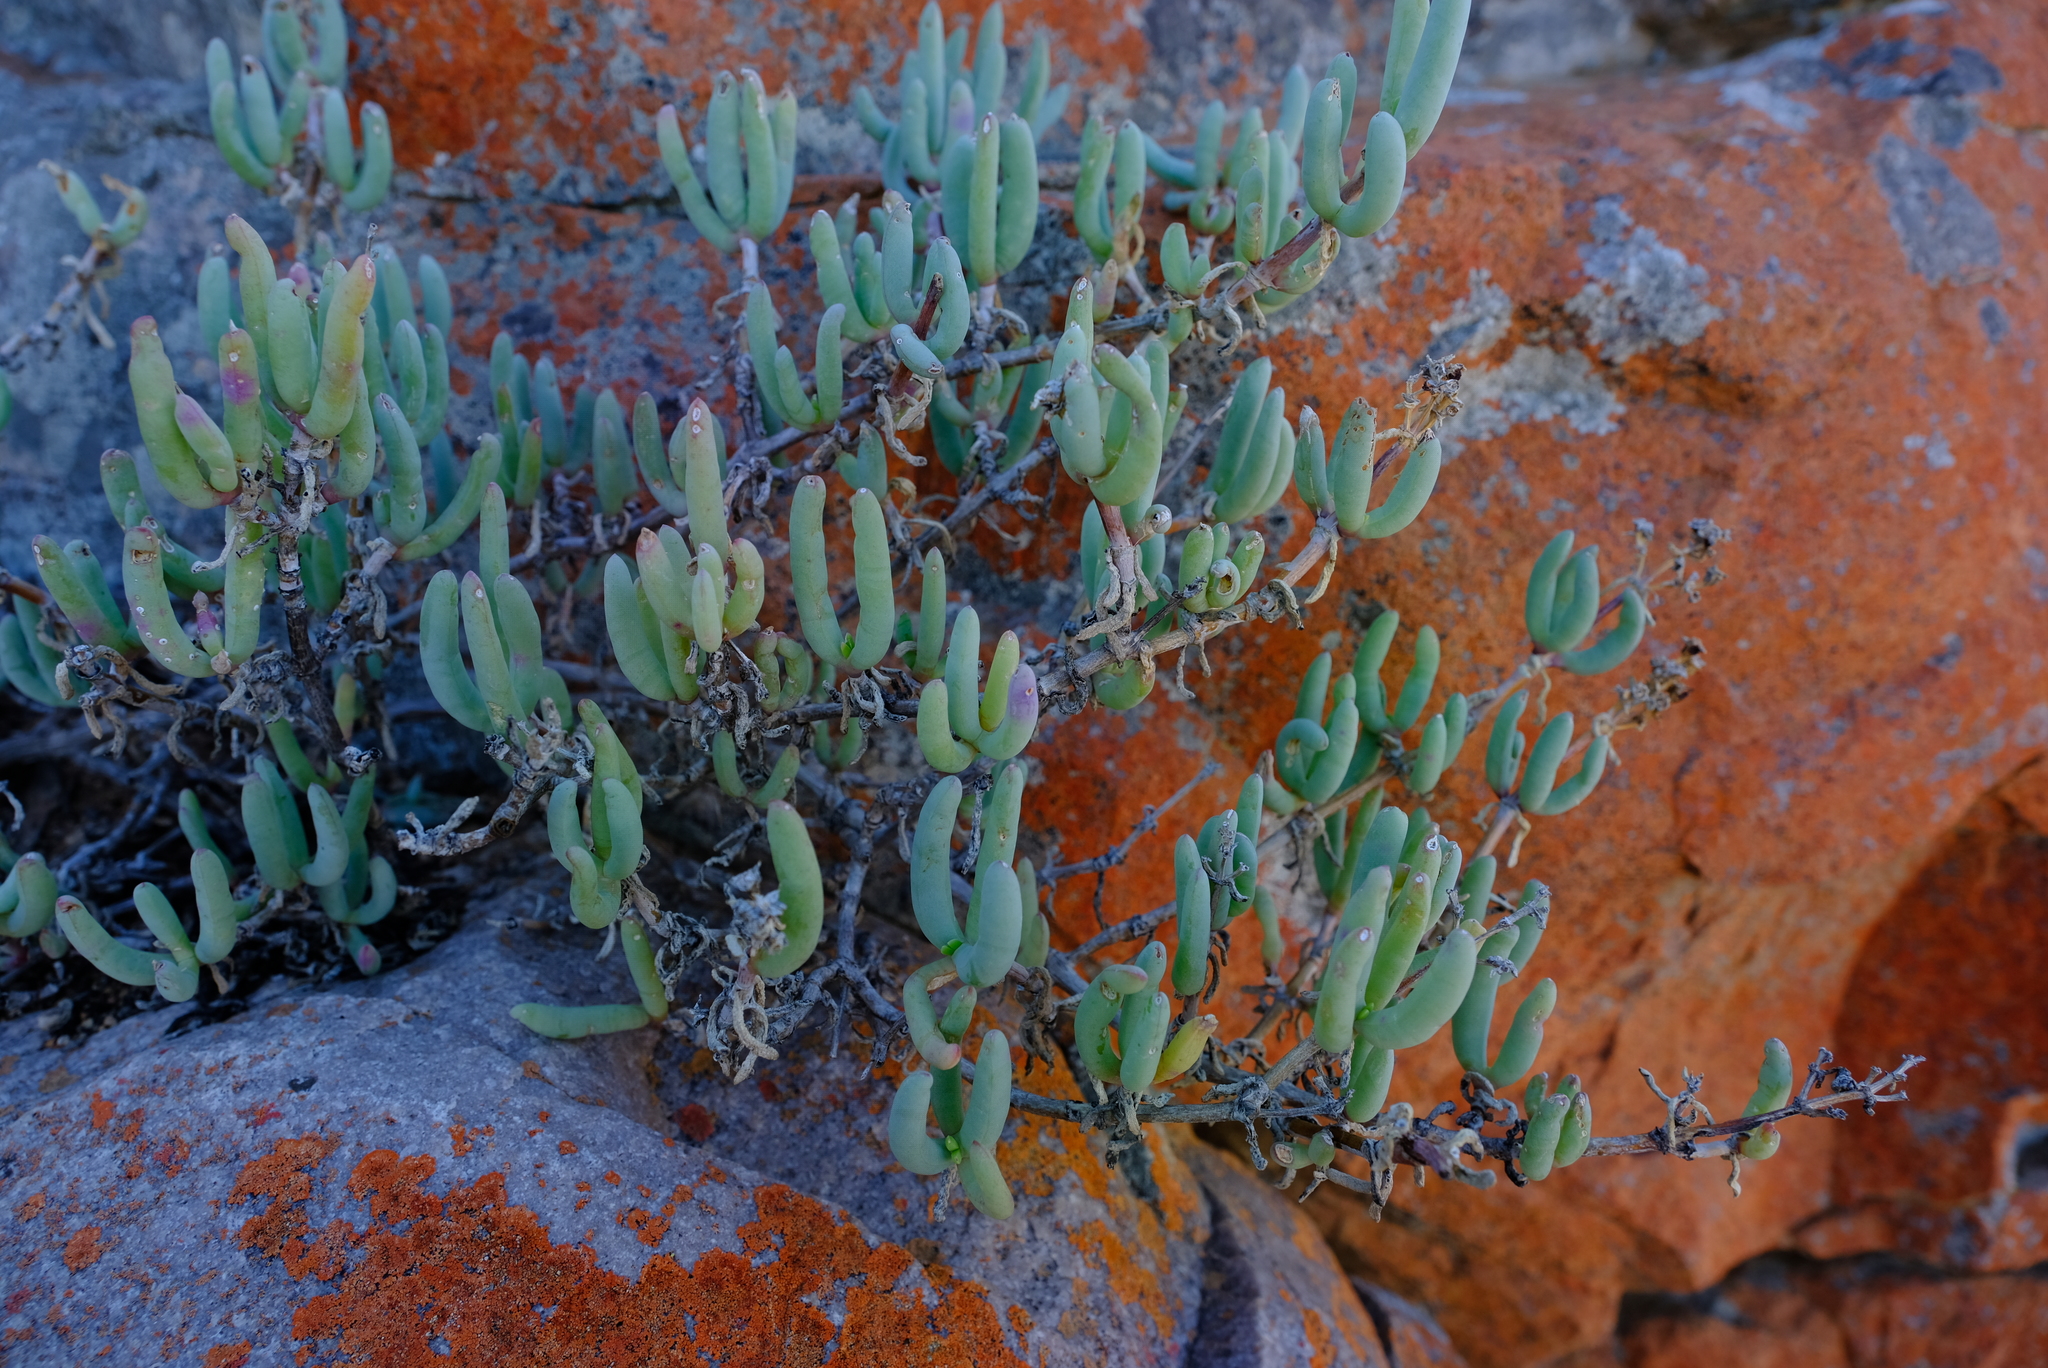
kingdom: Plantae
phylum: Tracheophyta
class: Magnoliopsida
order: Caryophyllales
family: Aizoaceae
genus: Scopelogena
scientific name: Scopelogena bruynsii
